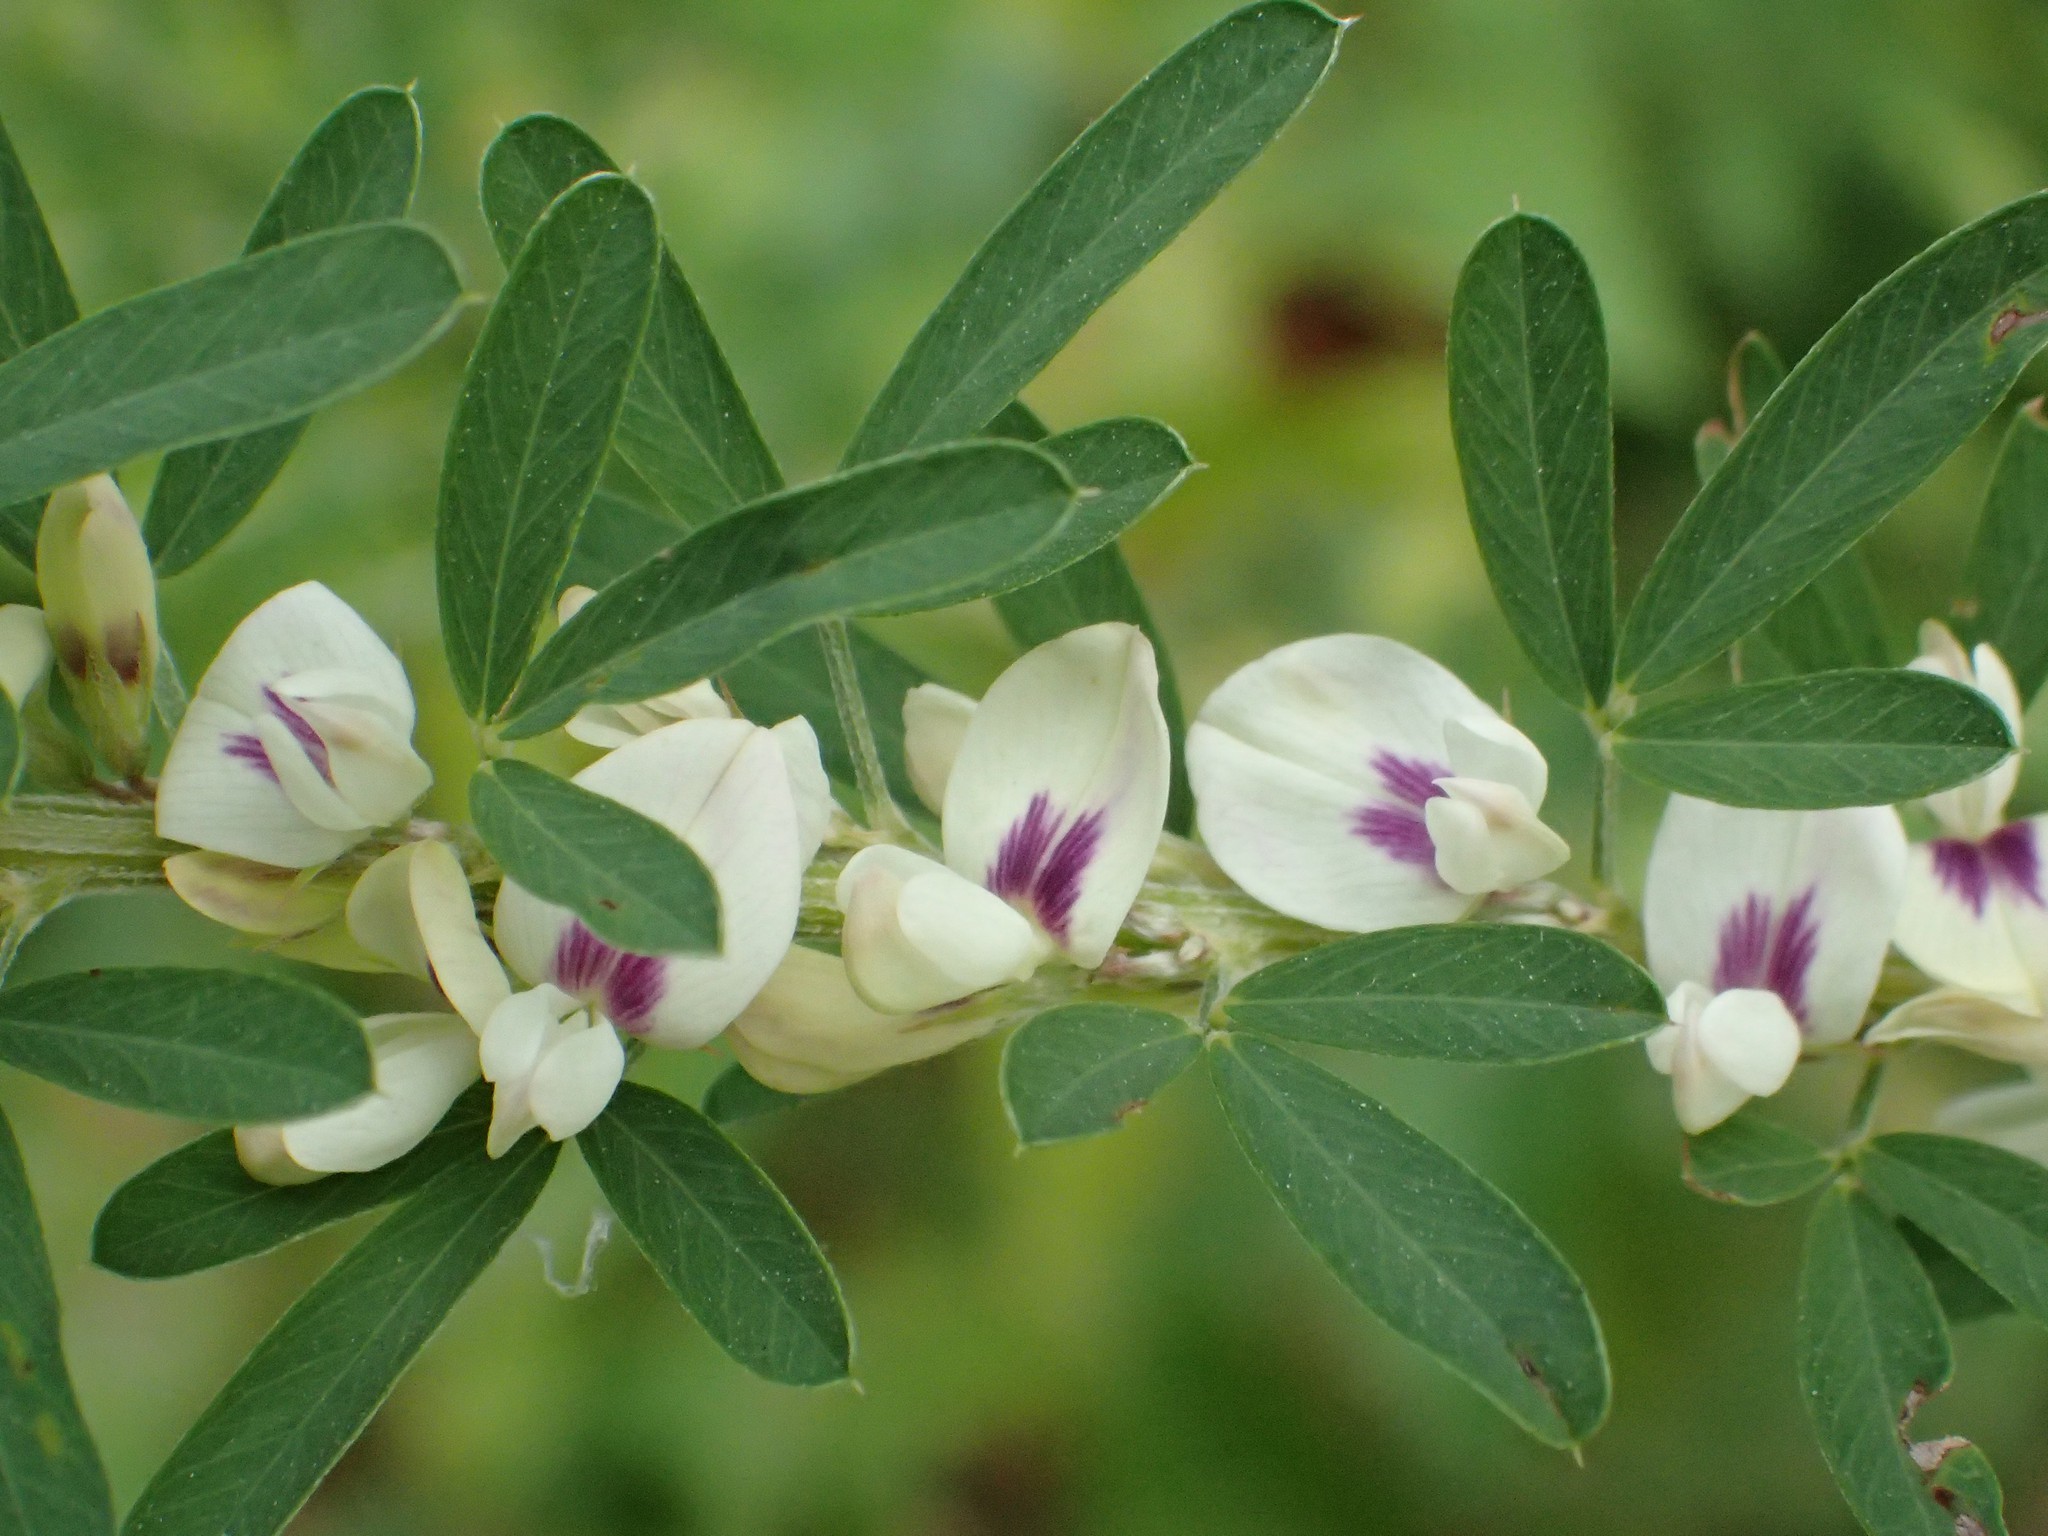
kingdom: Plantae
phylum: Tracheophyta
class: Magnoliopsida
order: Fabales
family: Fabaceae
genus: Lespedeza
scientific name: Lespedeza cuneata
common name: Chinese bush-clover
